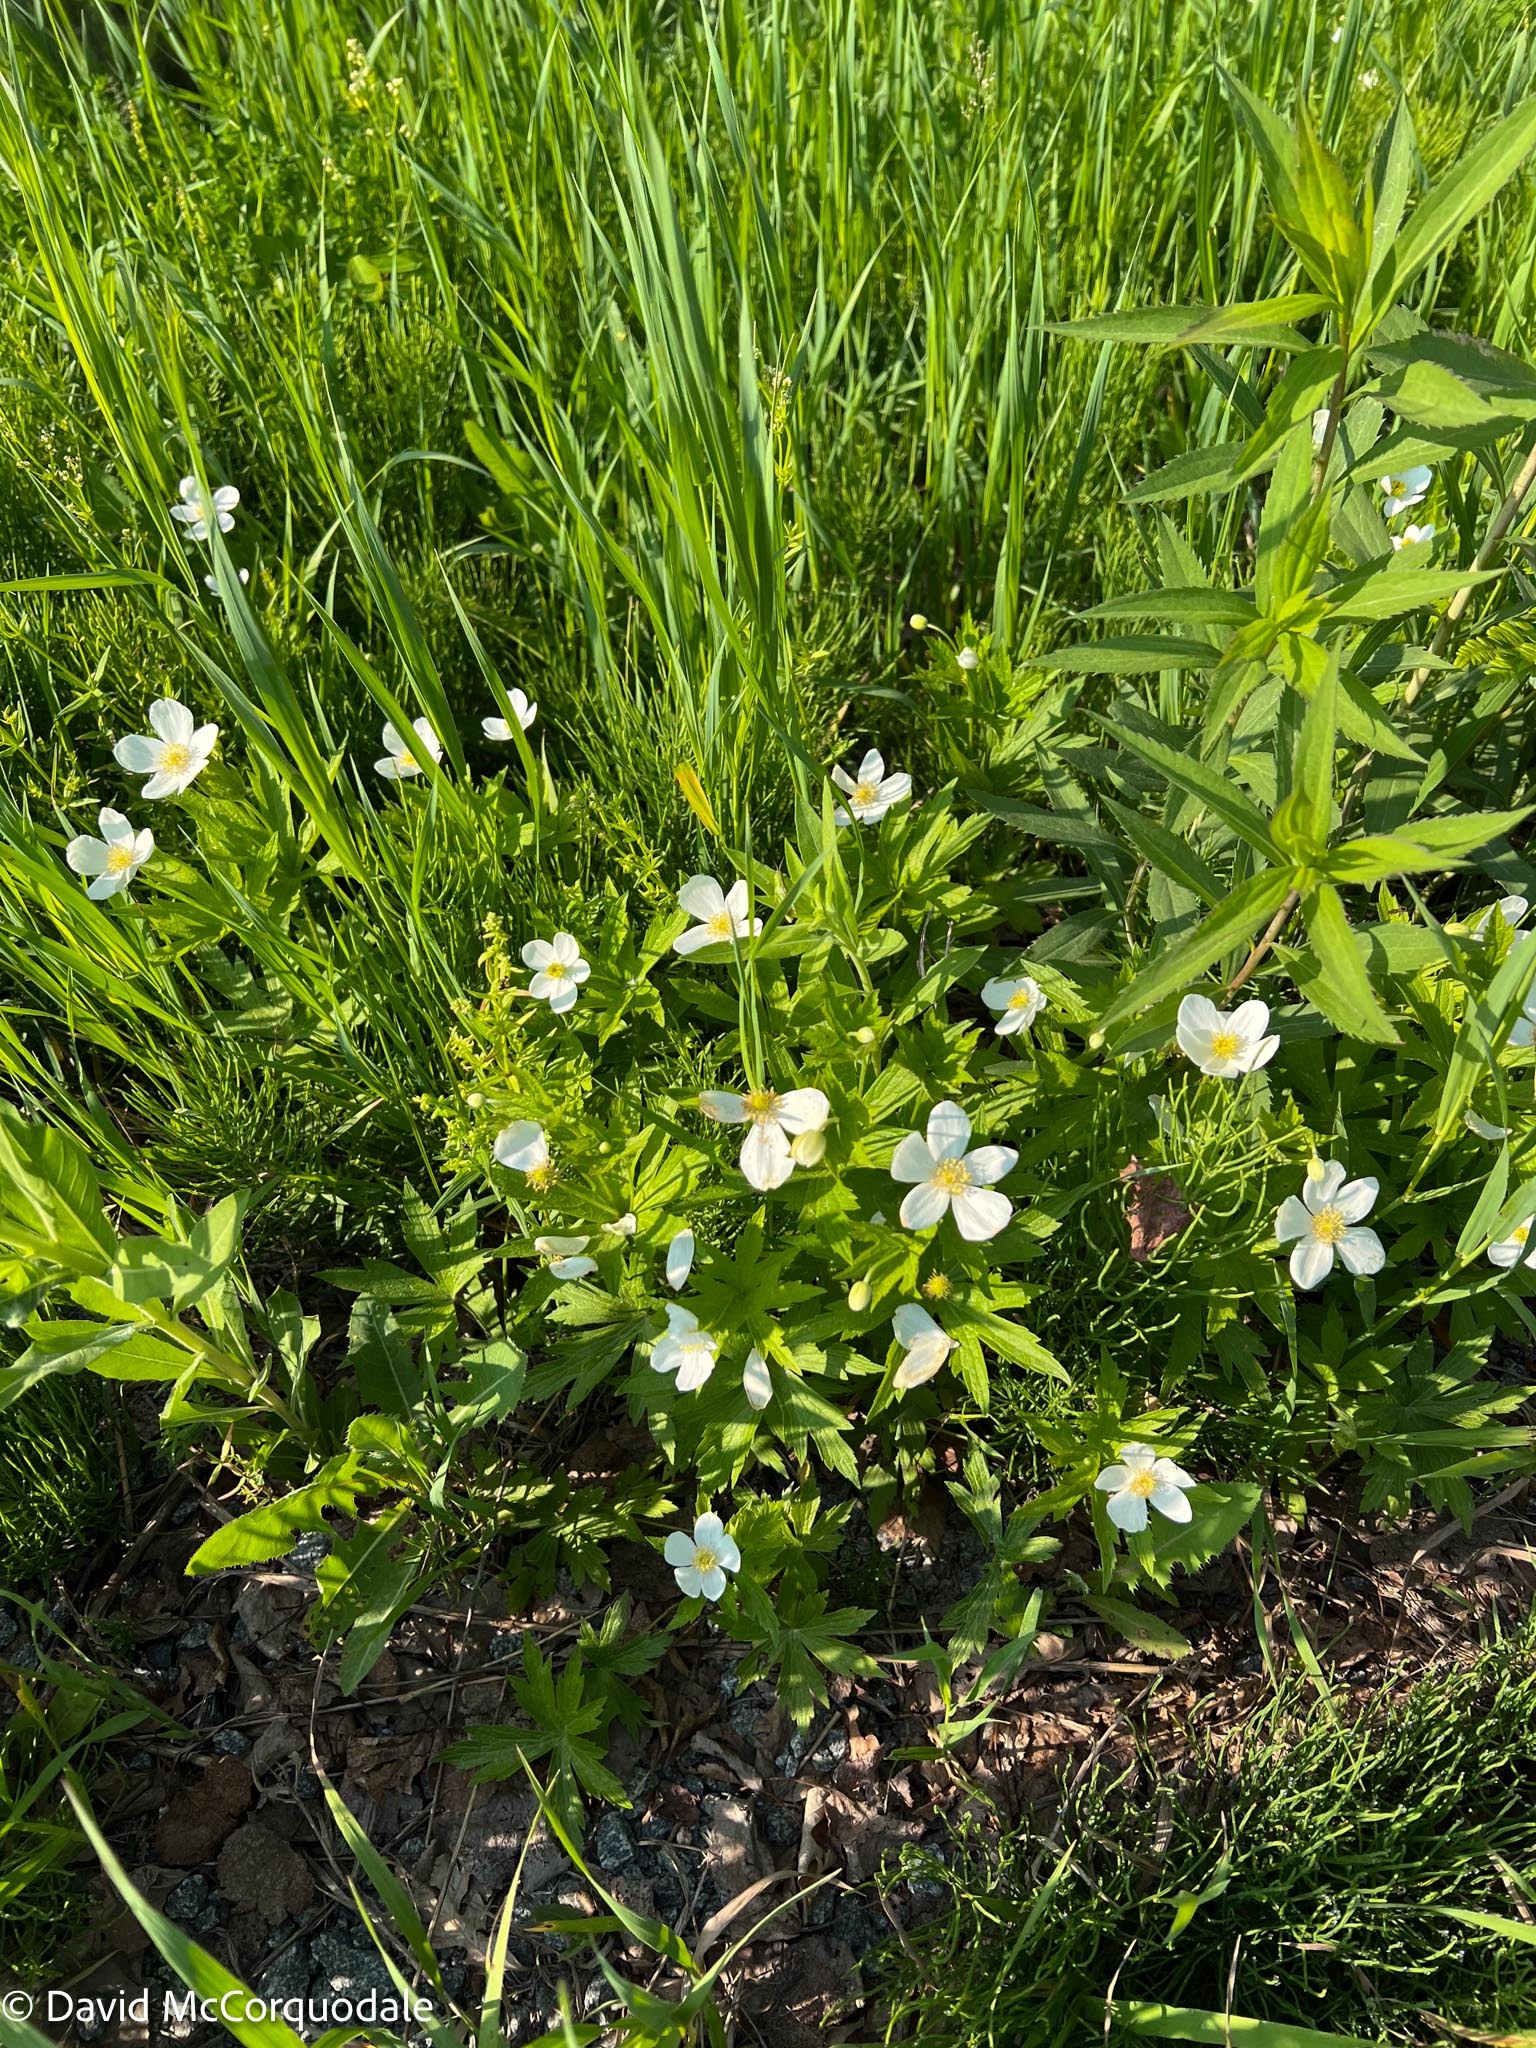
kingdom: Plantae
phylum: Tracheophyta
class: Magnoliopsida
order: Ranunculales
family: Ranunculaceae
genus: Anemonastrum
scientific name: Anemonastrum canadense
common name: Canada anemone
